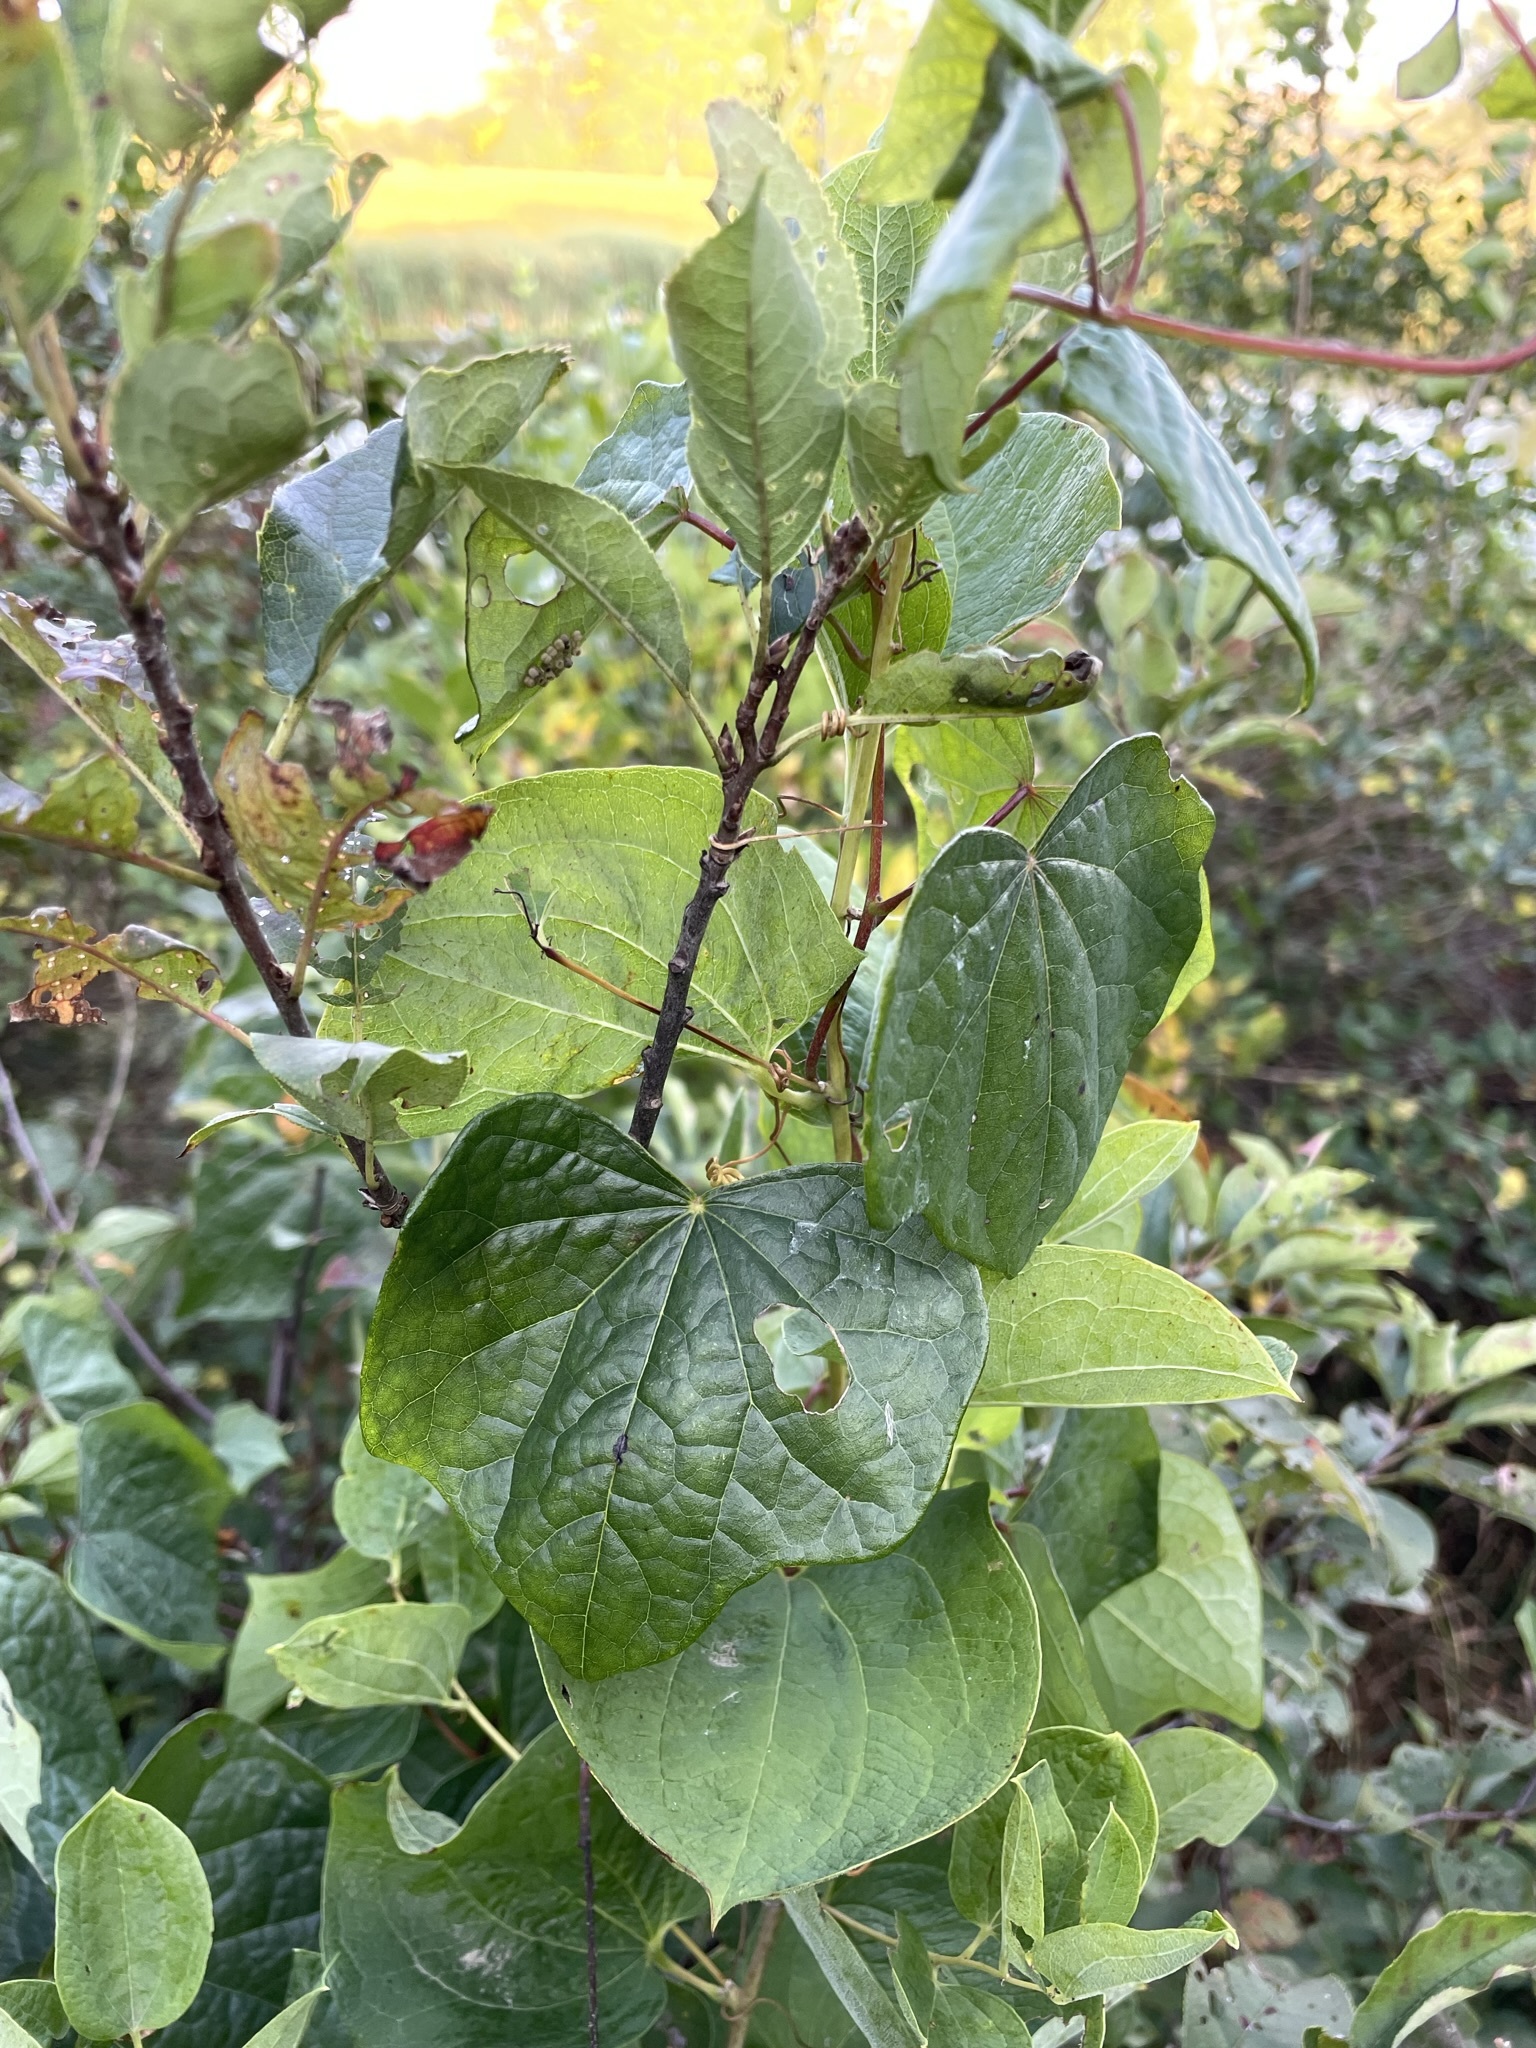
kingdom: Plantae
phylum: Tracheophyta
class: Magnoliopsida
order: Ranunculales
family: Menispermaceae
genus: Menispermum
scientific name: Menispermum canadense
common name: Moonseed
